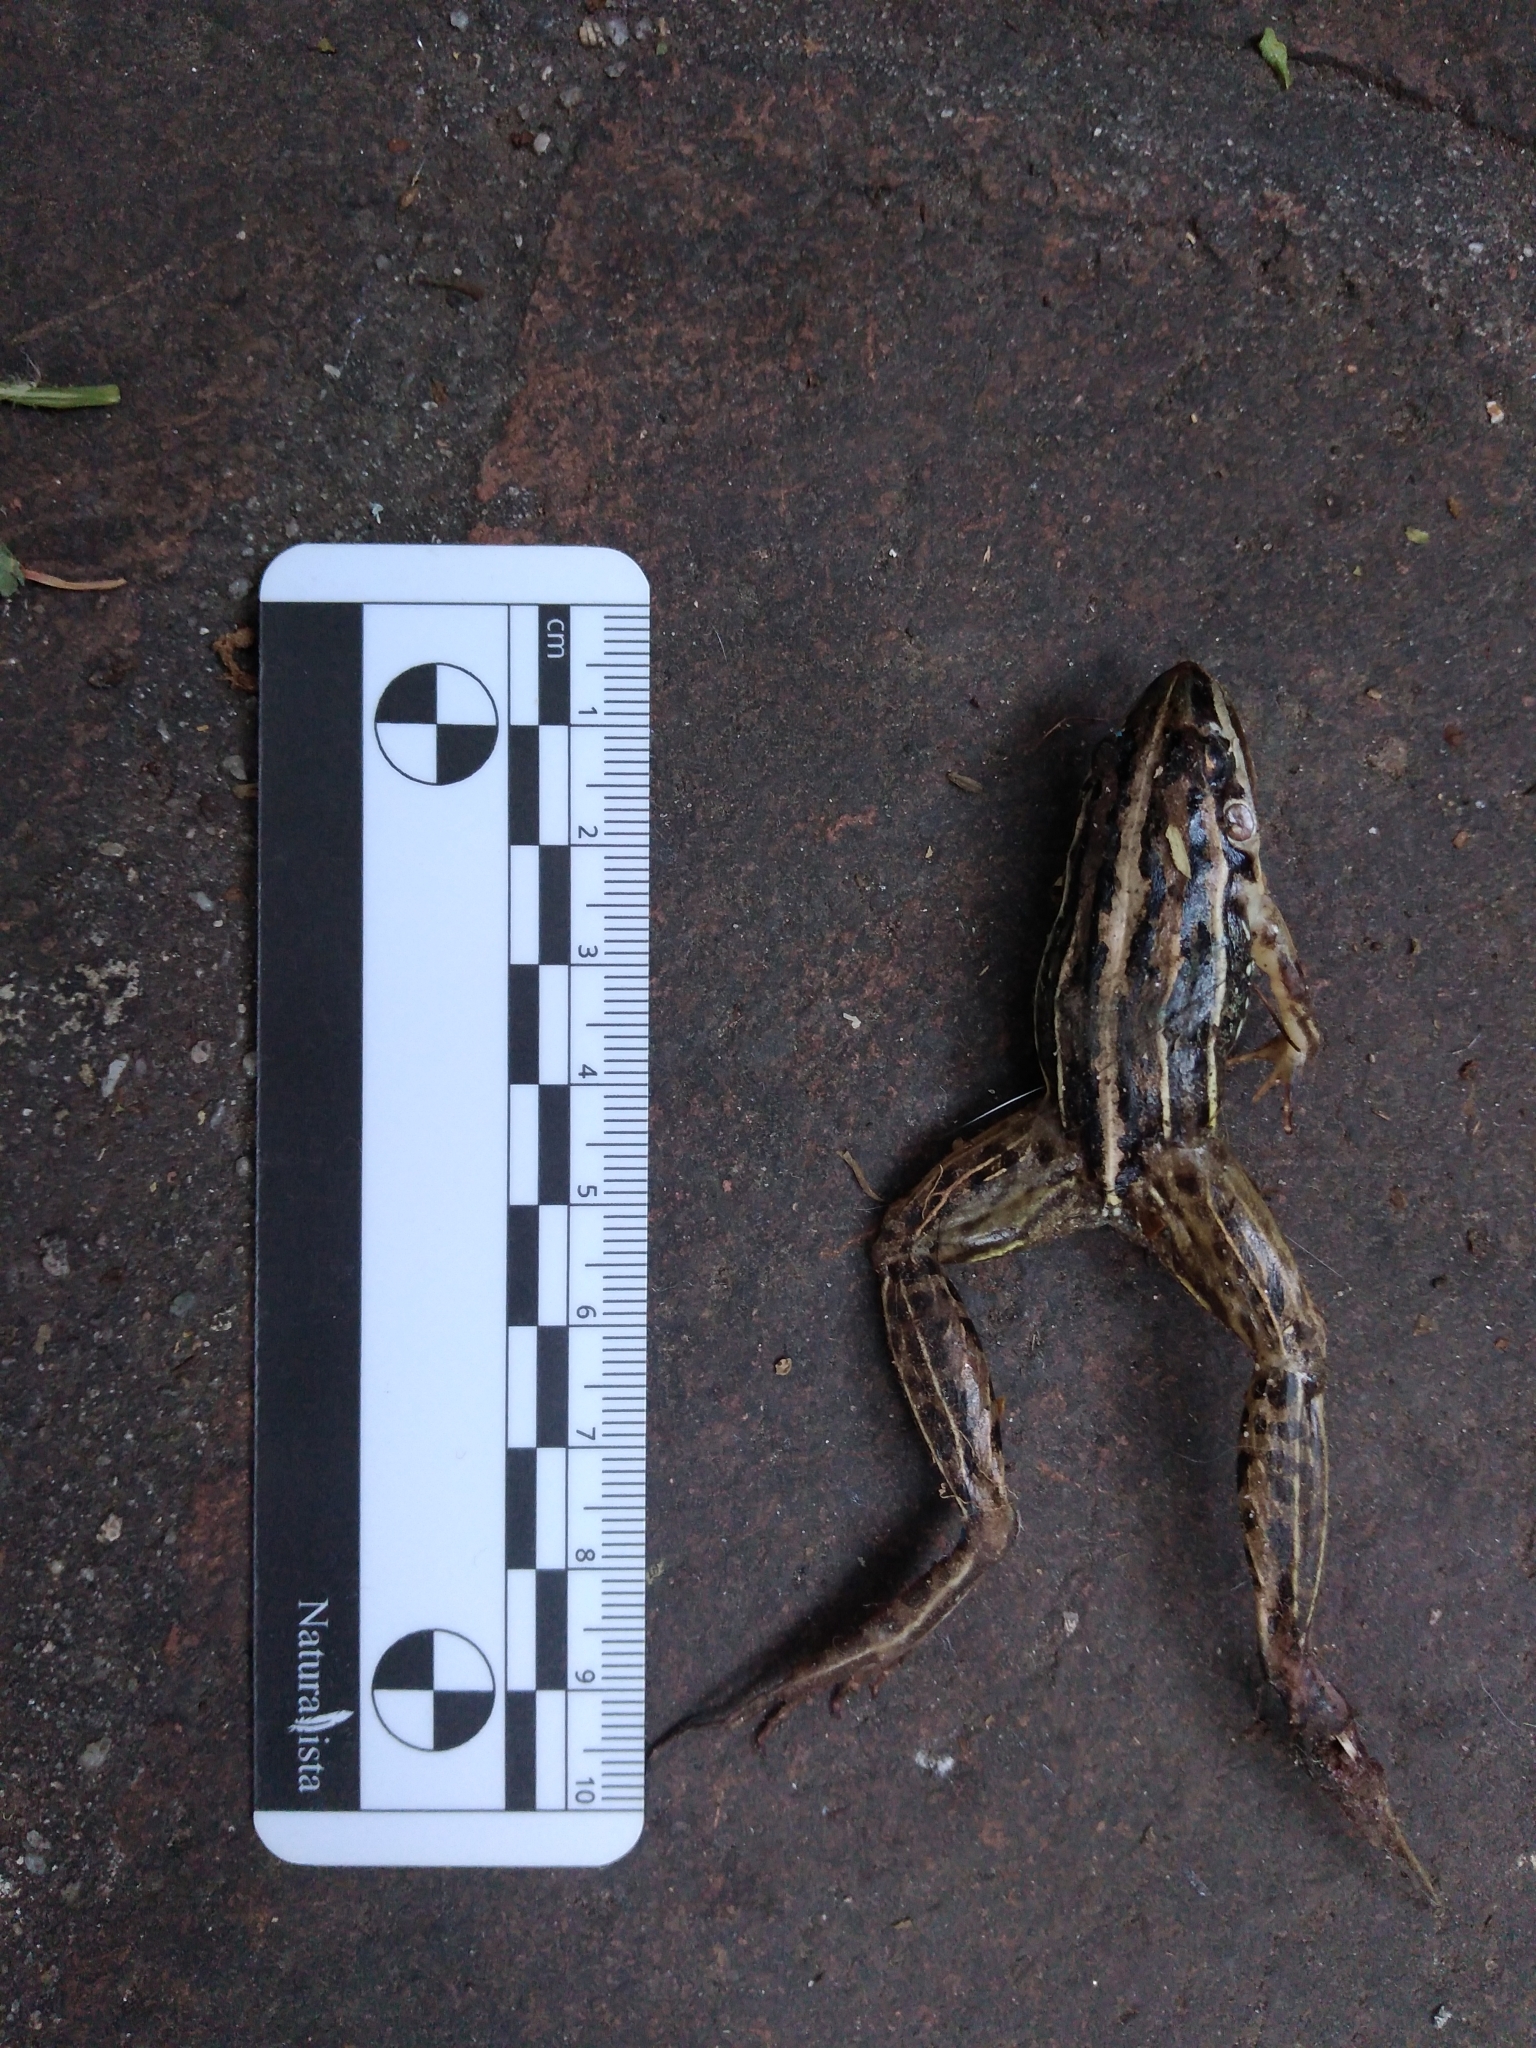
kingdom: Animalia
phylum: Chordata
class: Amphibia
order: Anura
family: Leptodactylidae
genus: Leptodactylus
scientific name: Leptodactylus gracilis
